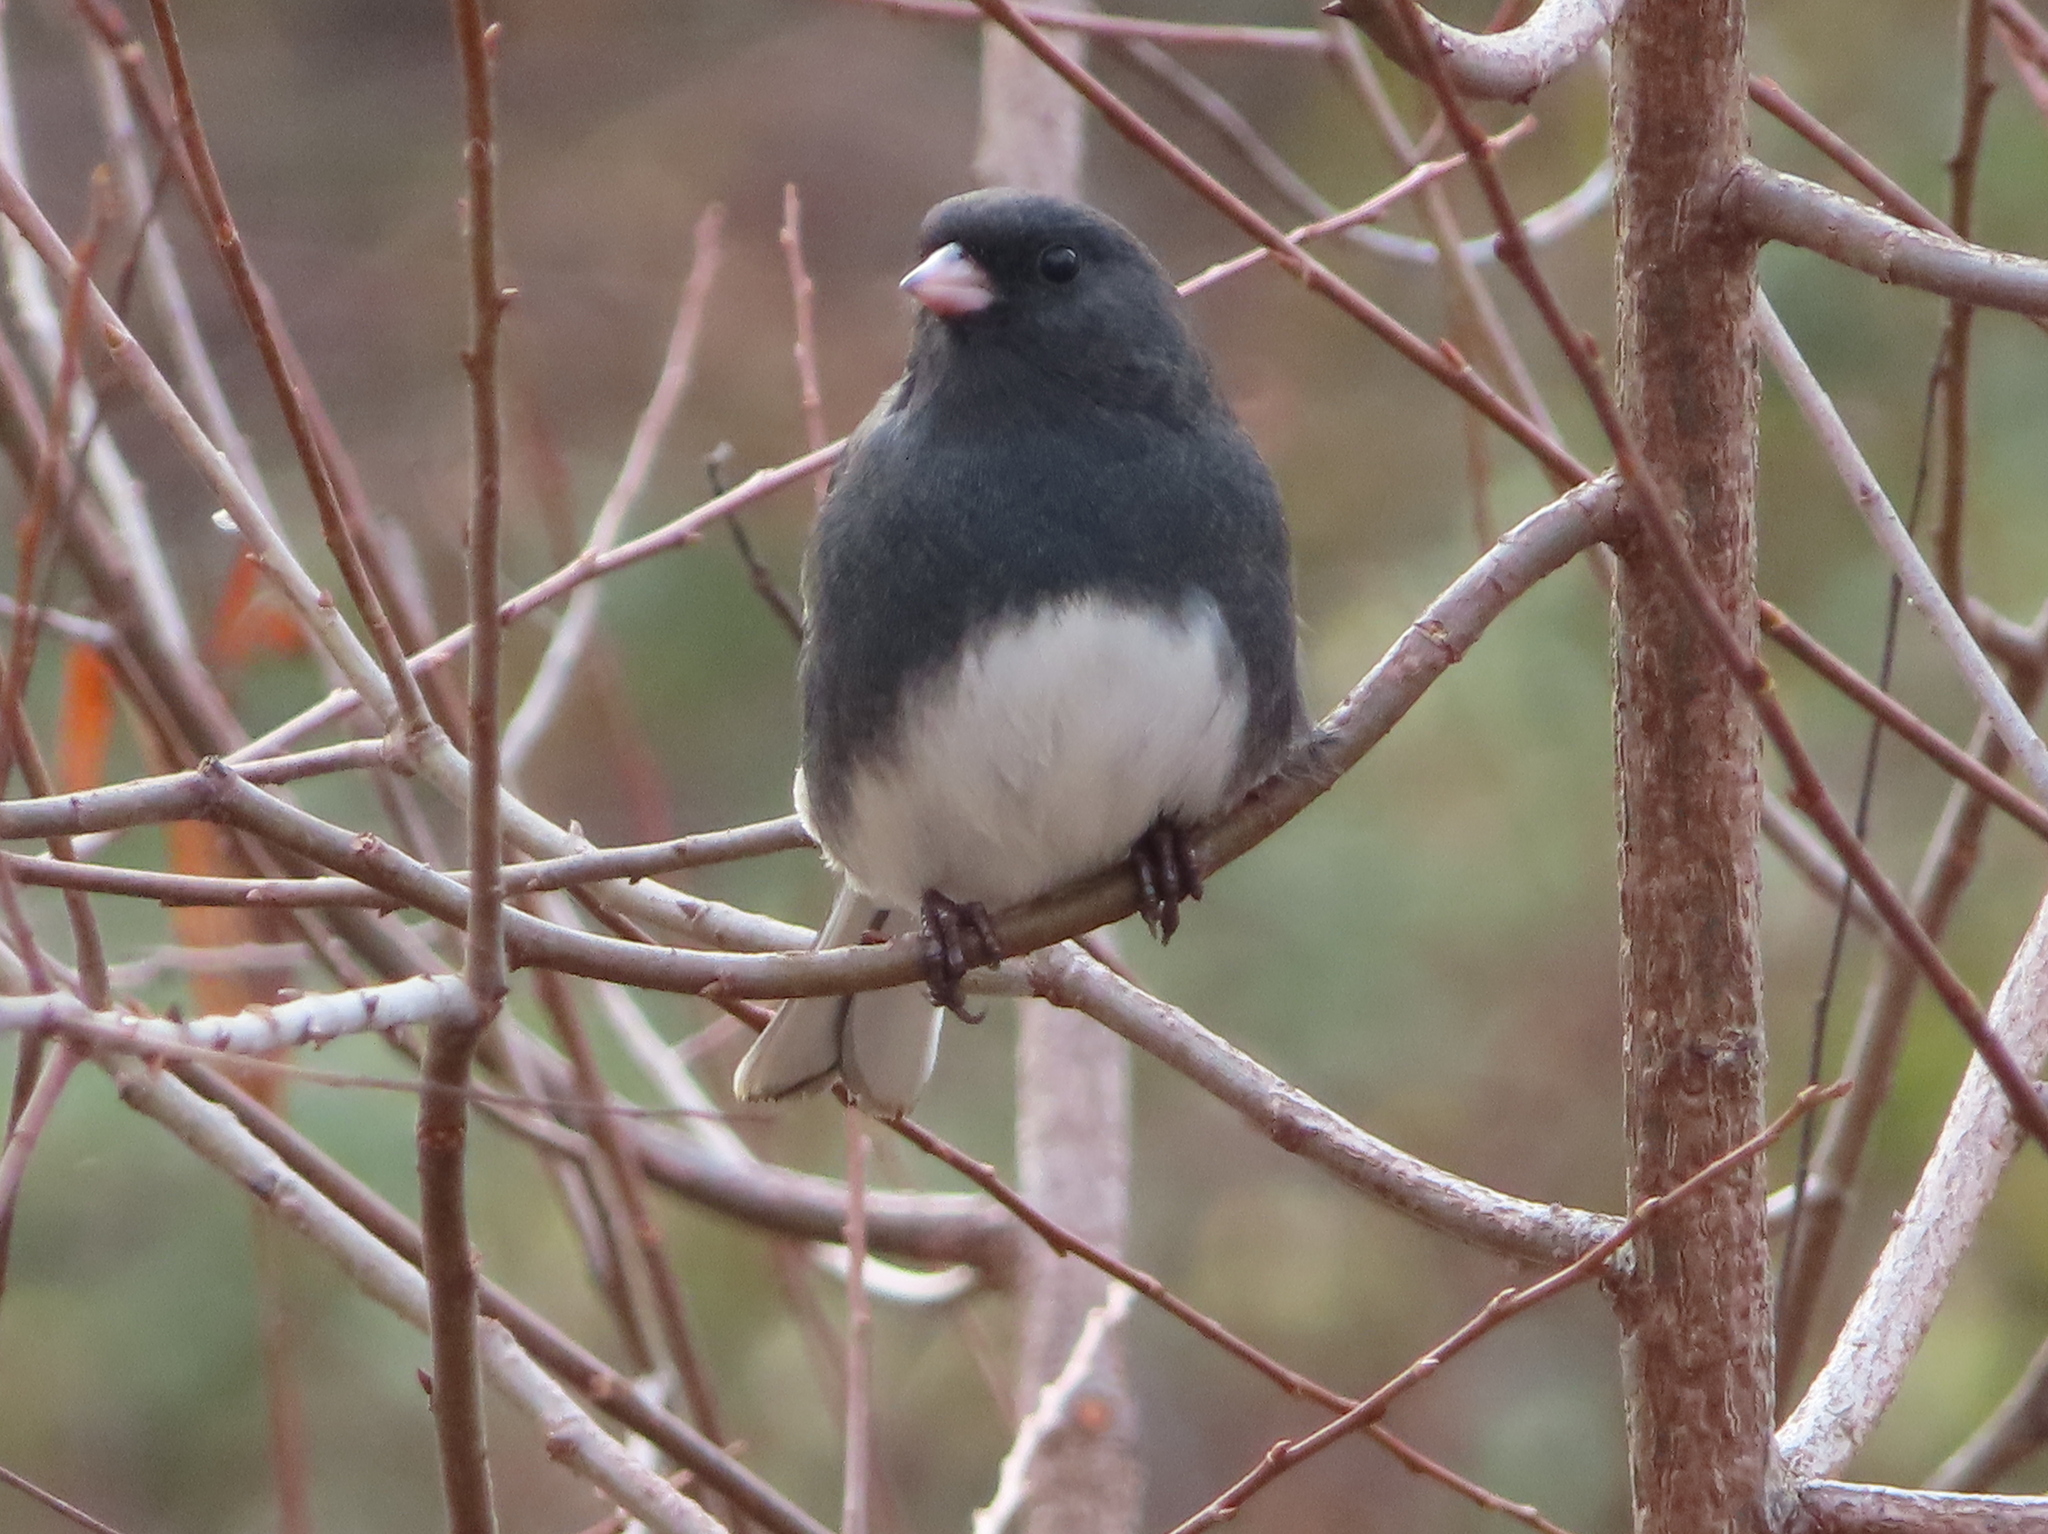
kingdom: Animalia
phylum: Chordata
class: Aves
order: Passeriformes
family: Passerellidae
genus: Junco
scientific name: Junco hyemalis
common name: Dark-eyed junco
